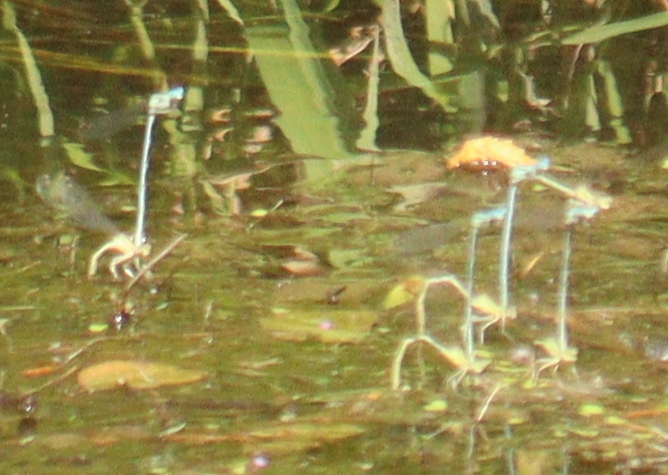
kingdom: Animalia
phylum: Arthropoda
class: Insecta
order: Odonata
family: Platycnemididae
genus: Platycnemis
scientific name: Platycnemis pennipes
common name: White-legged damselfly
